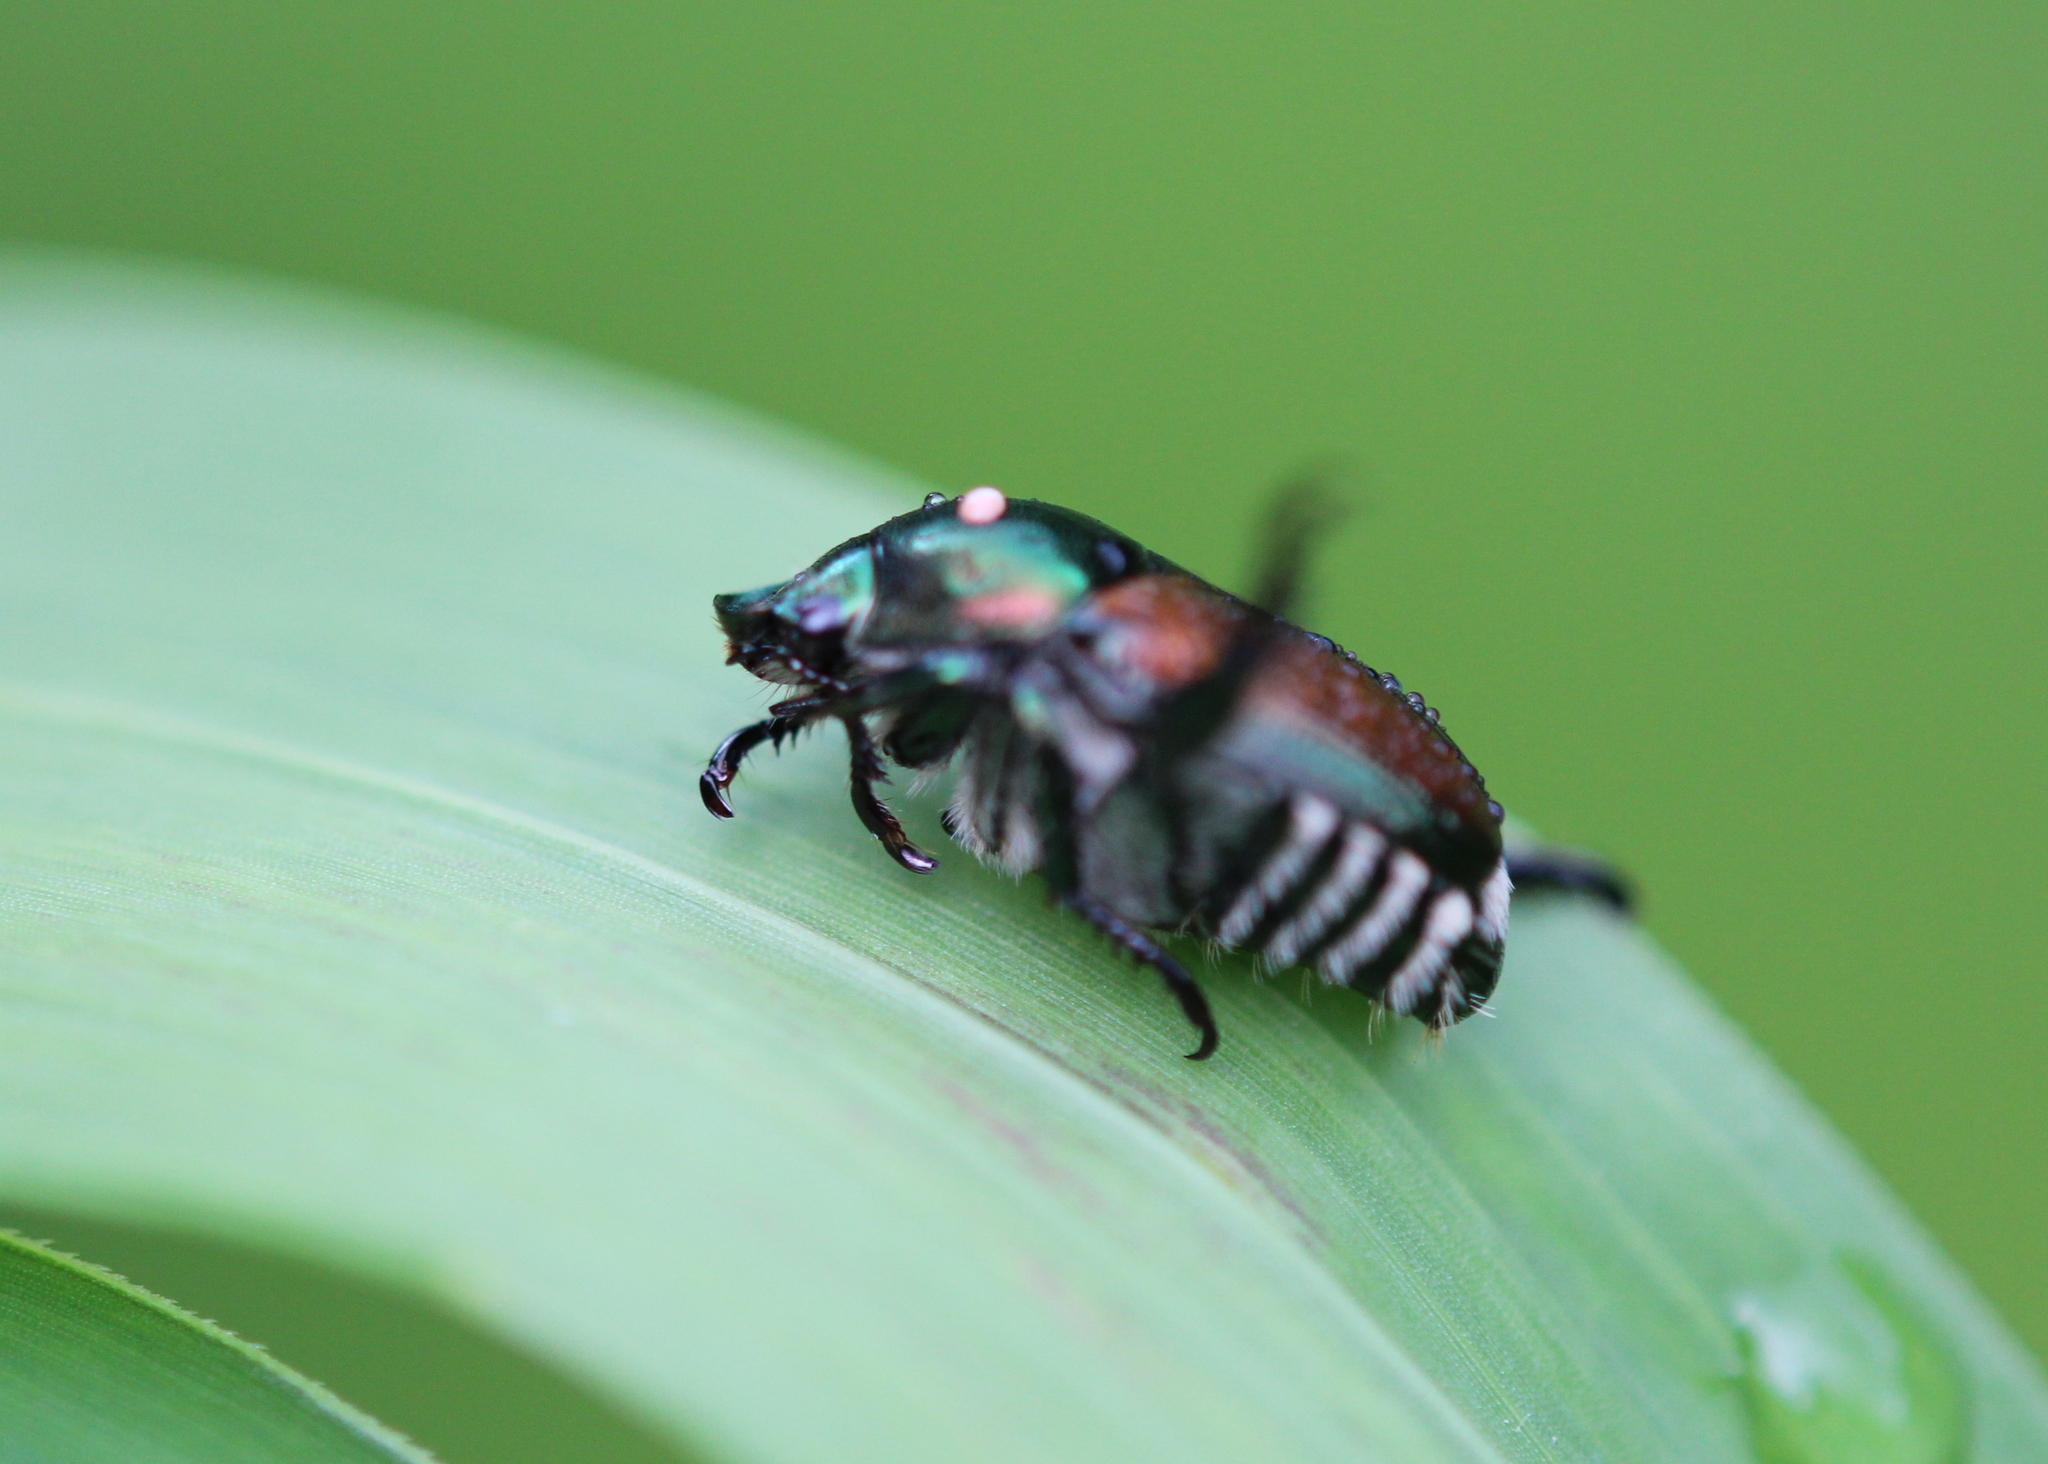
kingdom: Animalia
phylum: Arthropoda
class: Insecta
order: Coleoptera
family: Scarabaeidae
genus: Popillia
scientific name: Popillia japonica
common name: Japanese beetle
